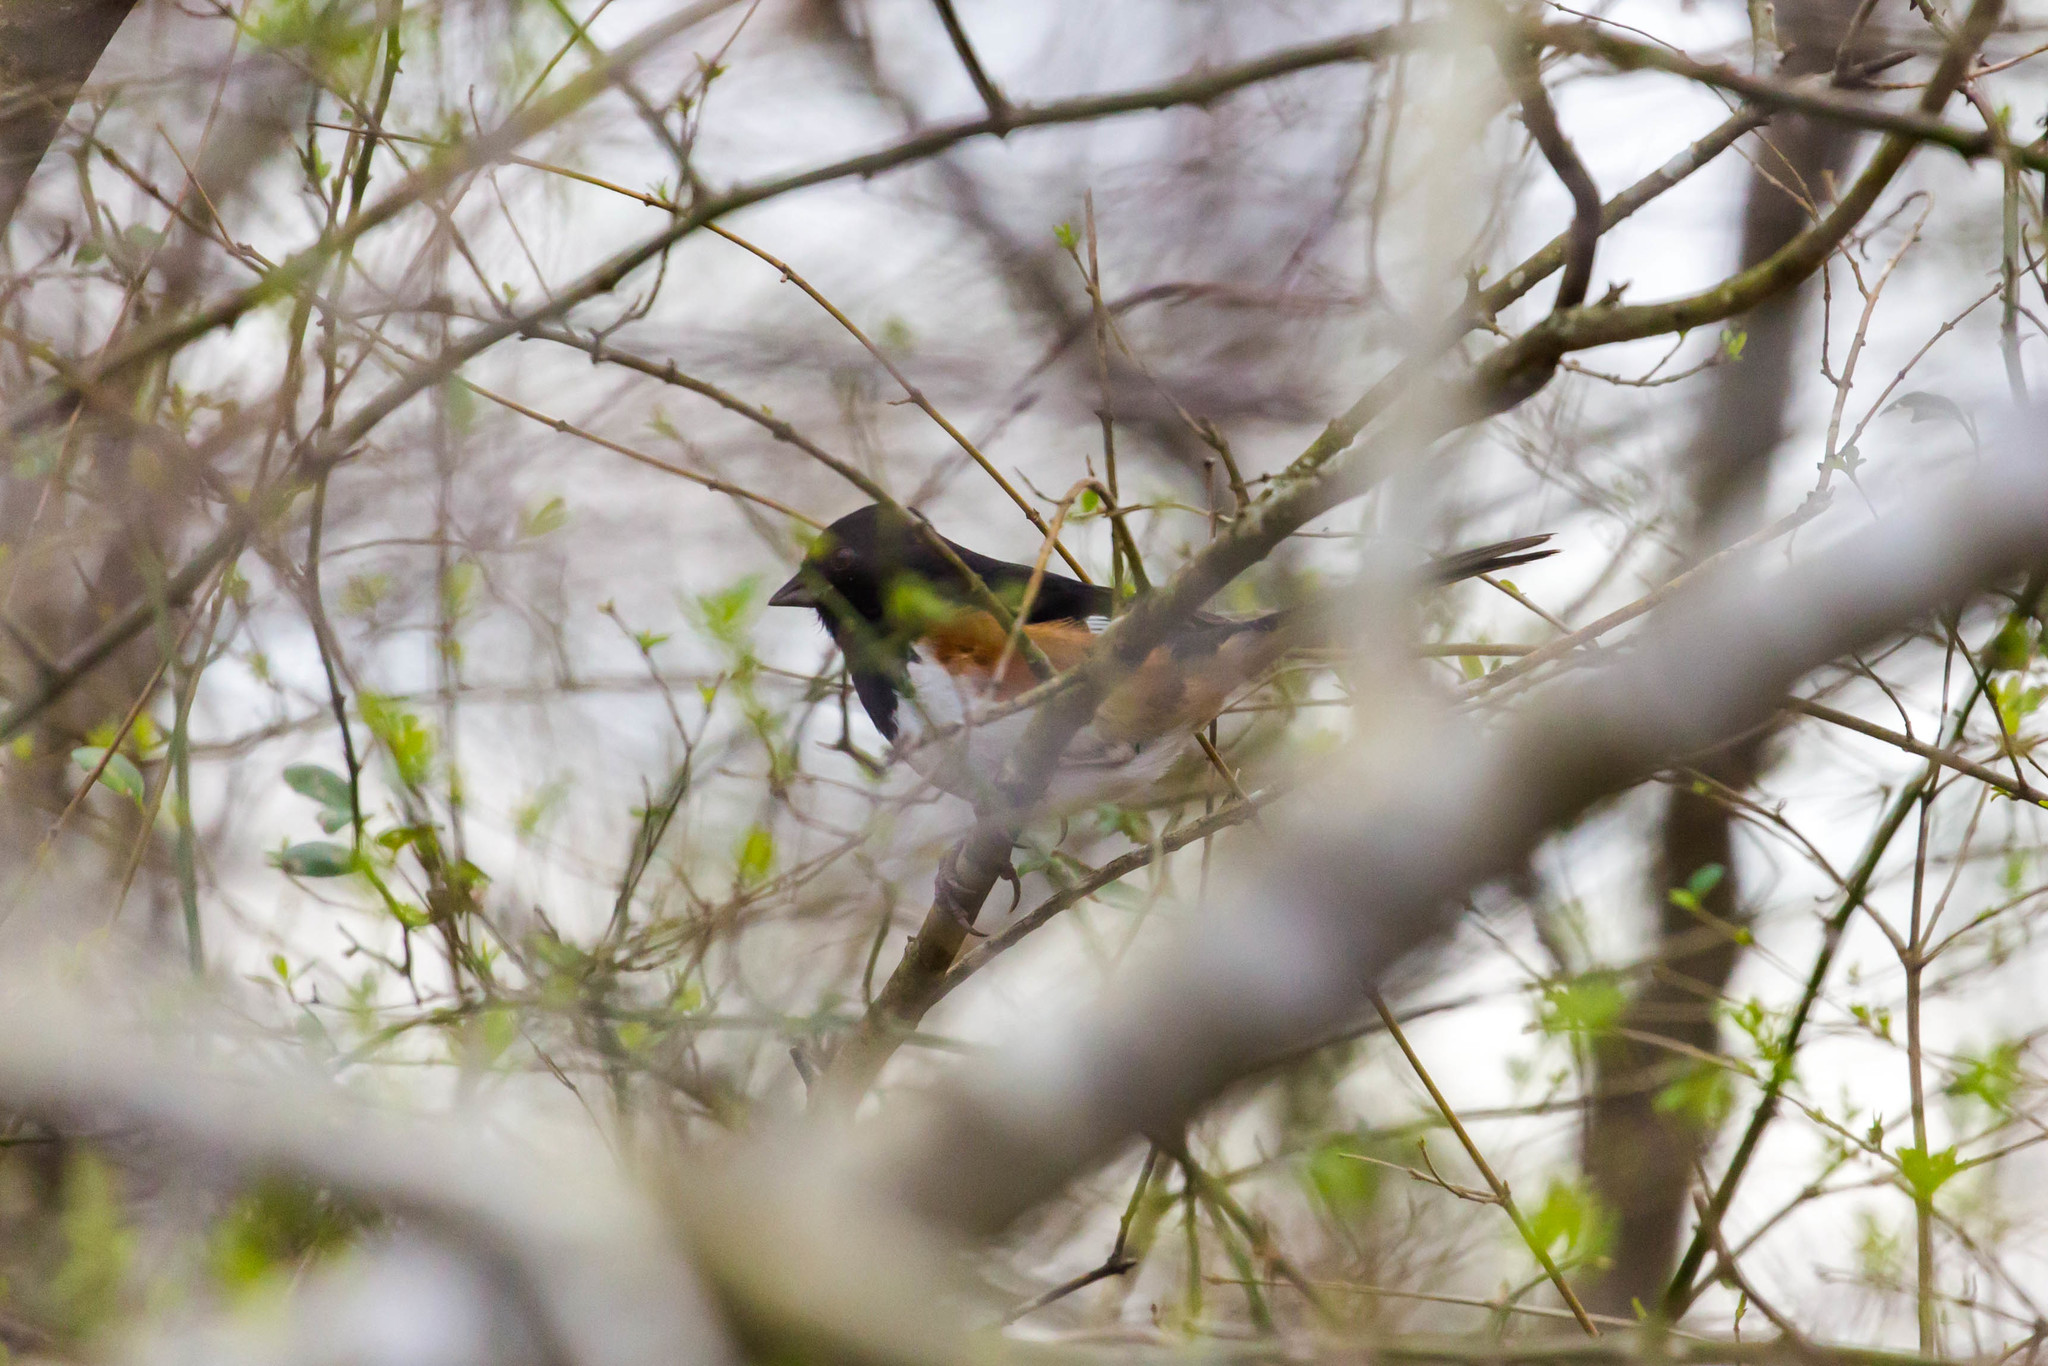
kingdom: Animalia
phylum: Chordata
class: Aves
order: Passeriformes
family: Passerellidae
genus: Pipilo
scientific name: Pipilo erythrophthalmus
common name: Eastern towhee
